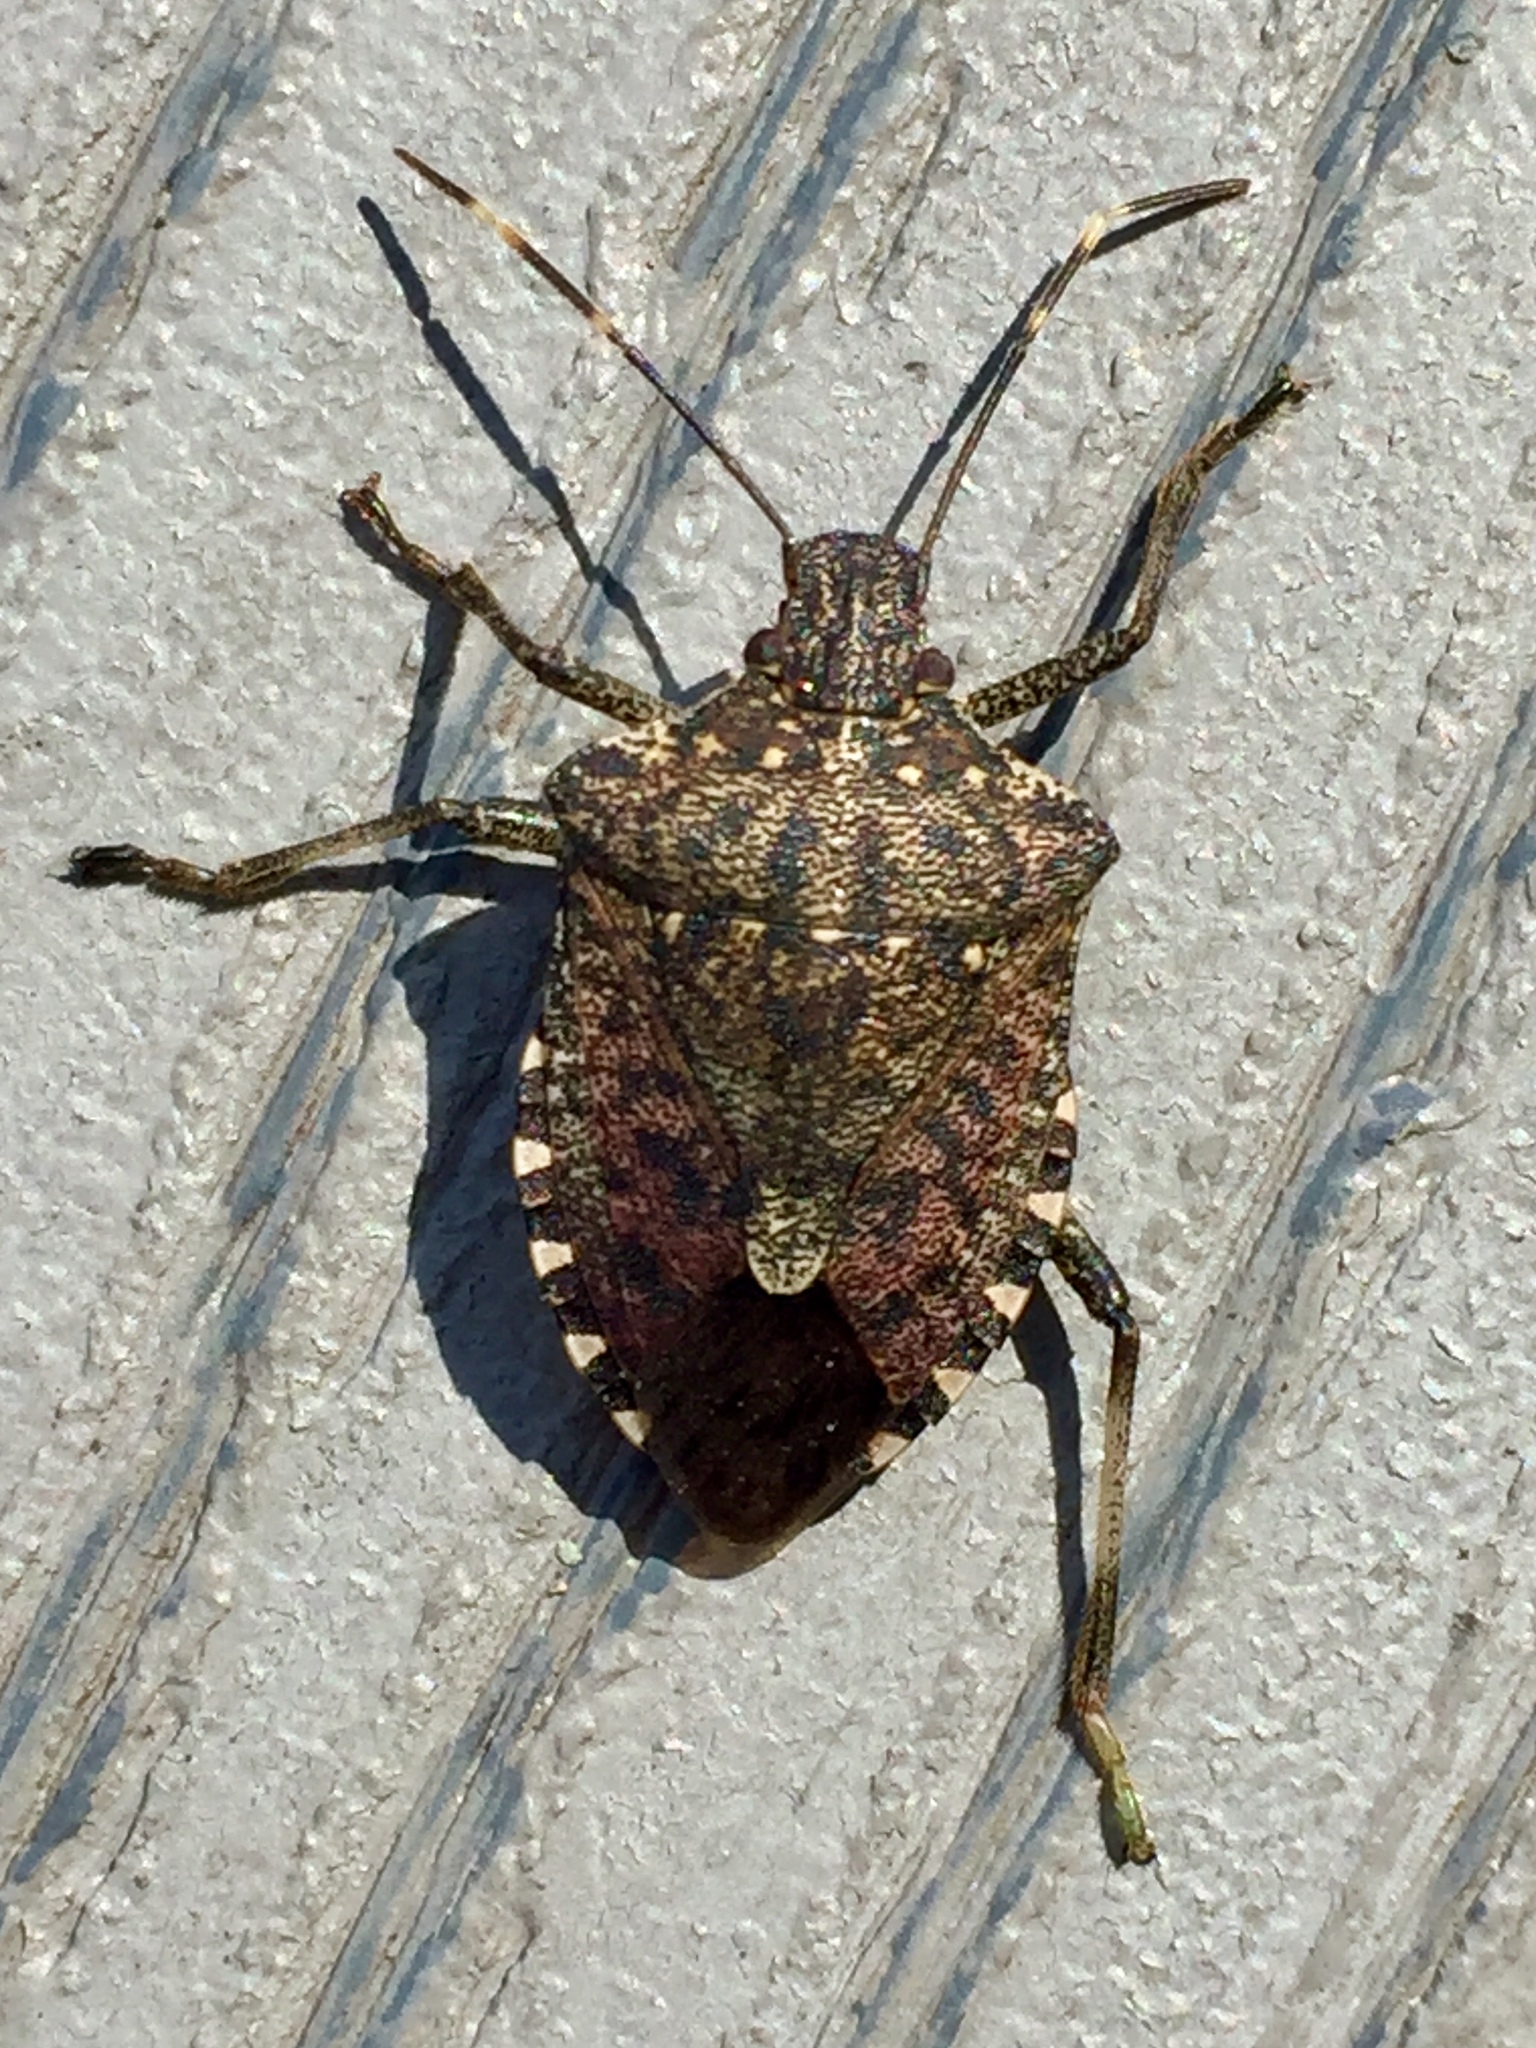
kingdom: Animalia
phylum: Arthropoda
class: Insecta
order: Hemiptera
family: Pentatomidae
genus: Halyomorpha
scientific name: Halyomorpha halys
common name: Brown marmorated stink bug
